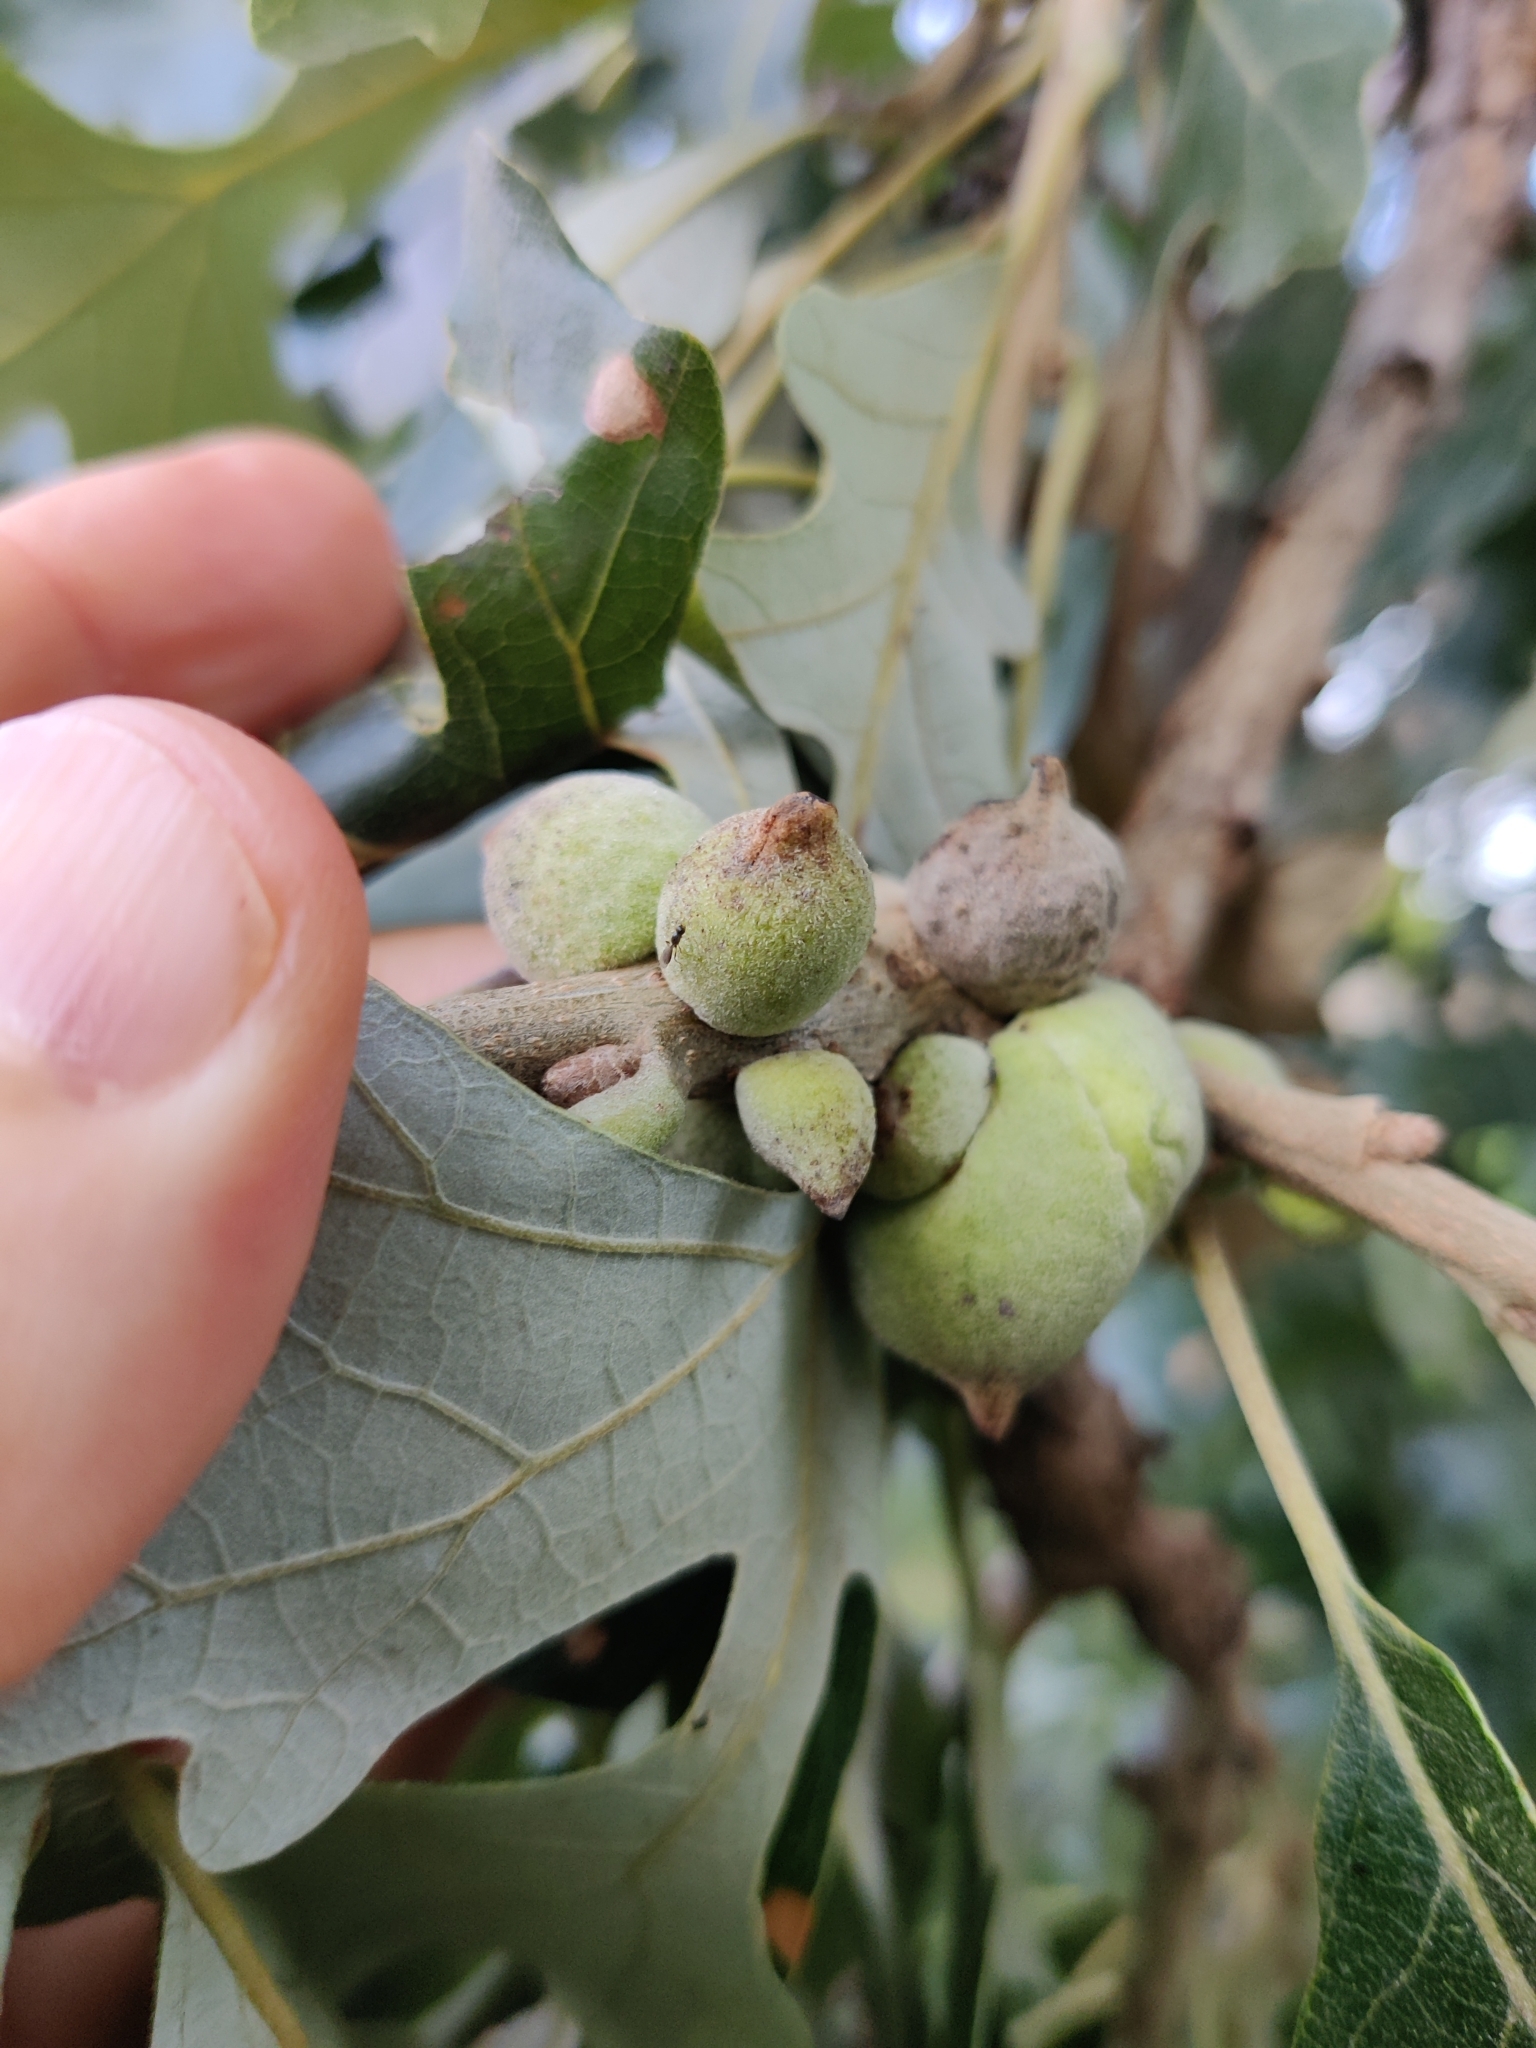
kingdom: Animalia
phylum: Arthropoda
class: Insecta
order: Hymenoptera
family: Cynipidae
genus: Disholcaspis
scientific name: Disholcaspis
